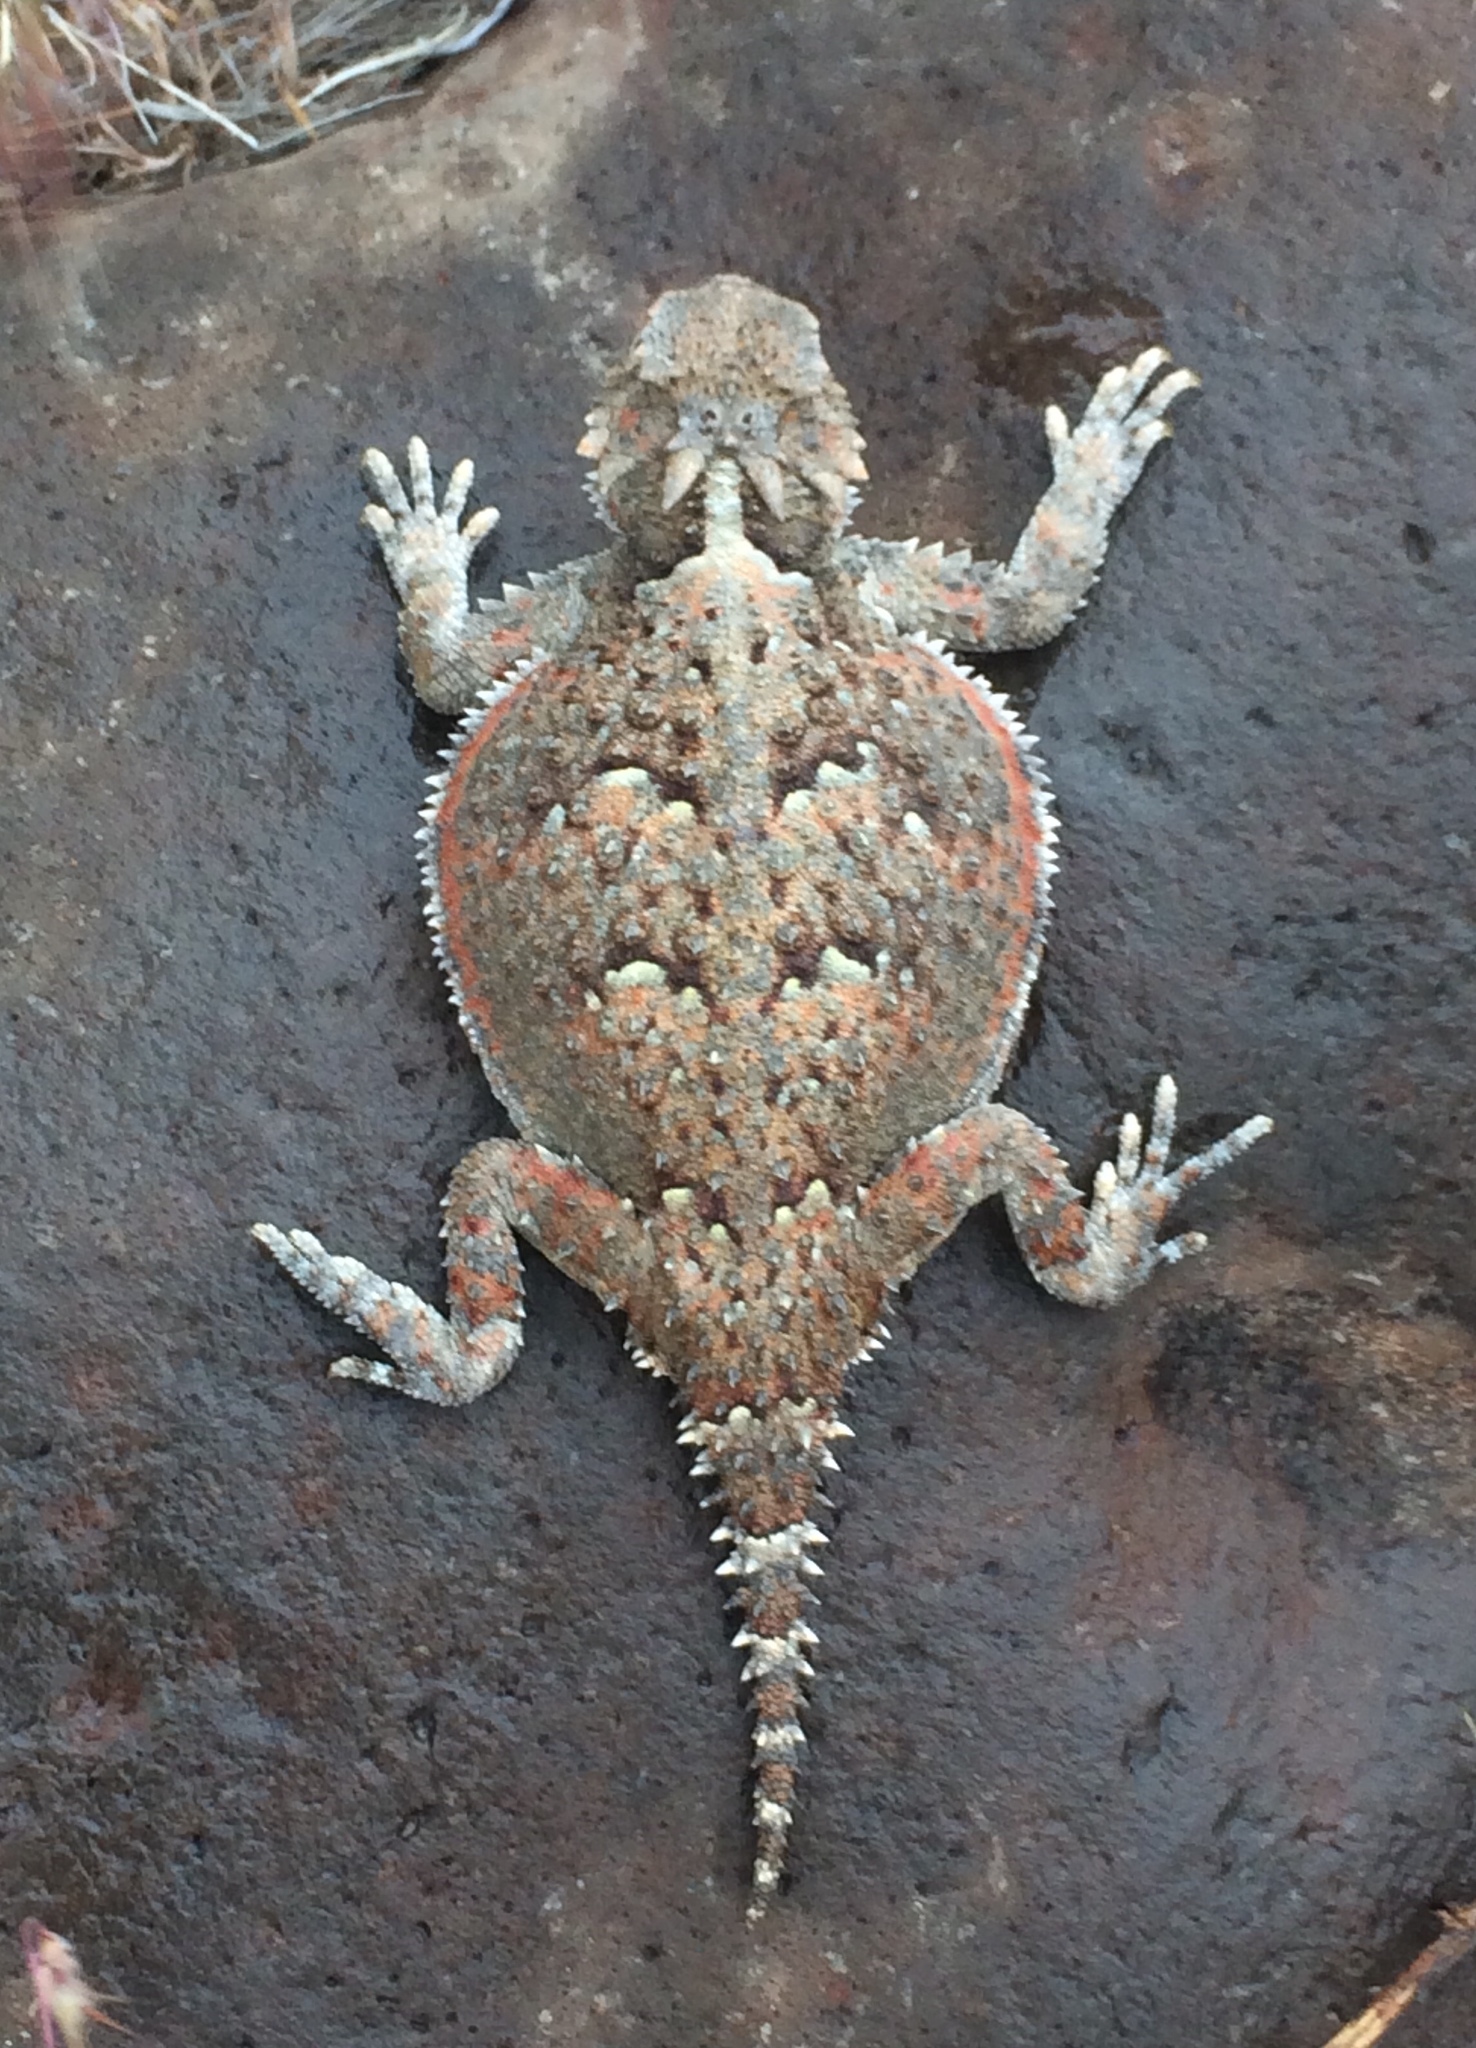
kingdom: Animalia
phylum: Chordata
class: Squamata
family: Phrynosomatidae
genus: Phrynosoma
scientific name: Phrynosoma platyrhinos
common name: Desert horned lizard
